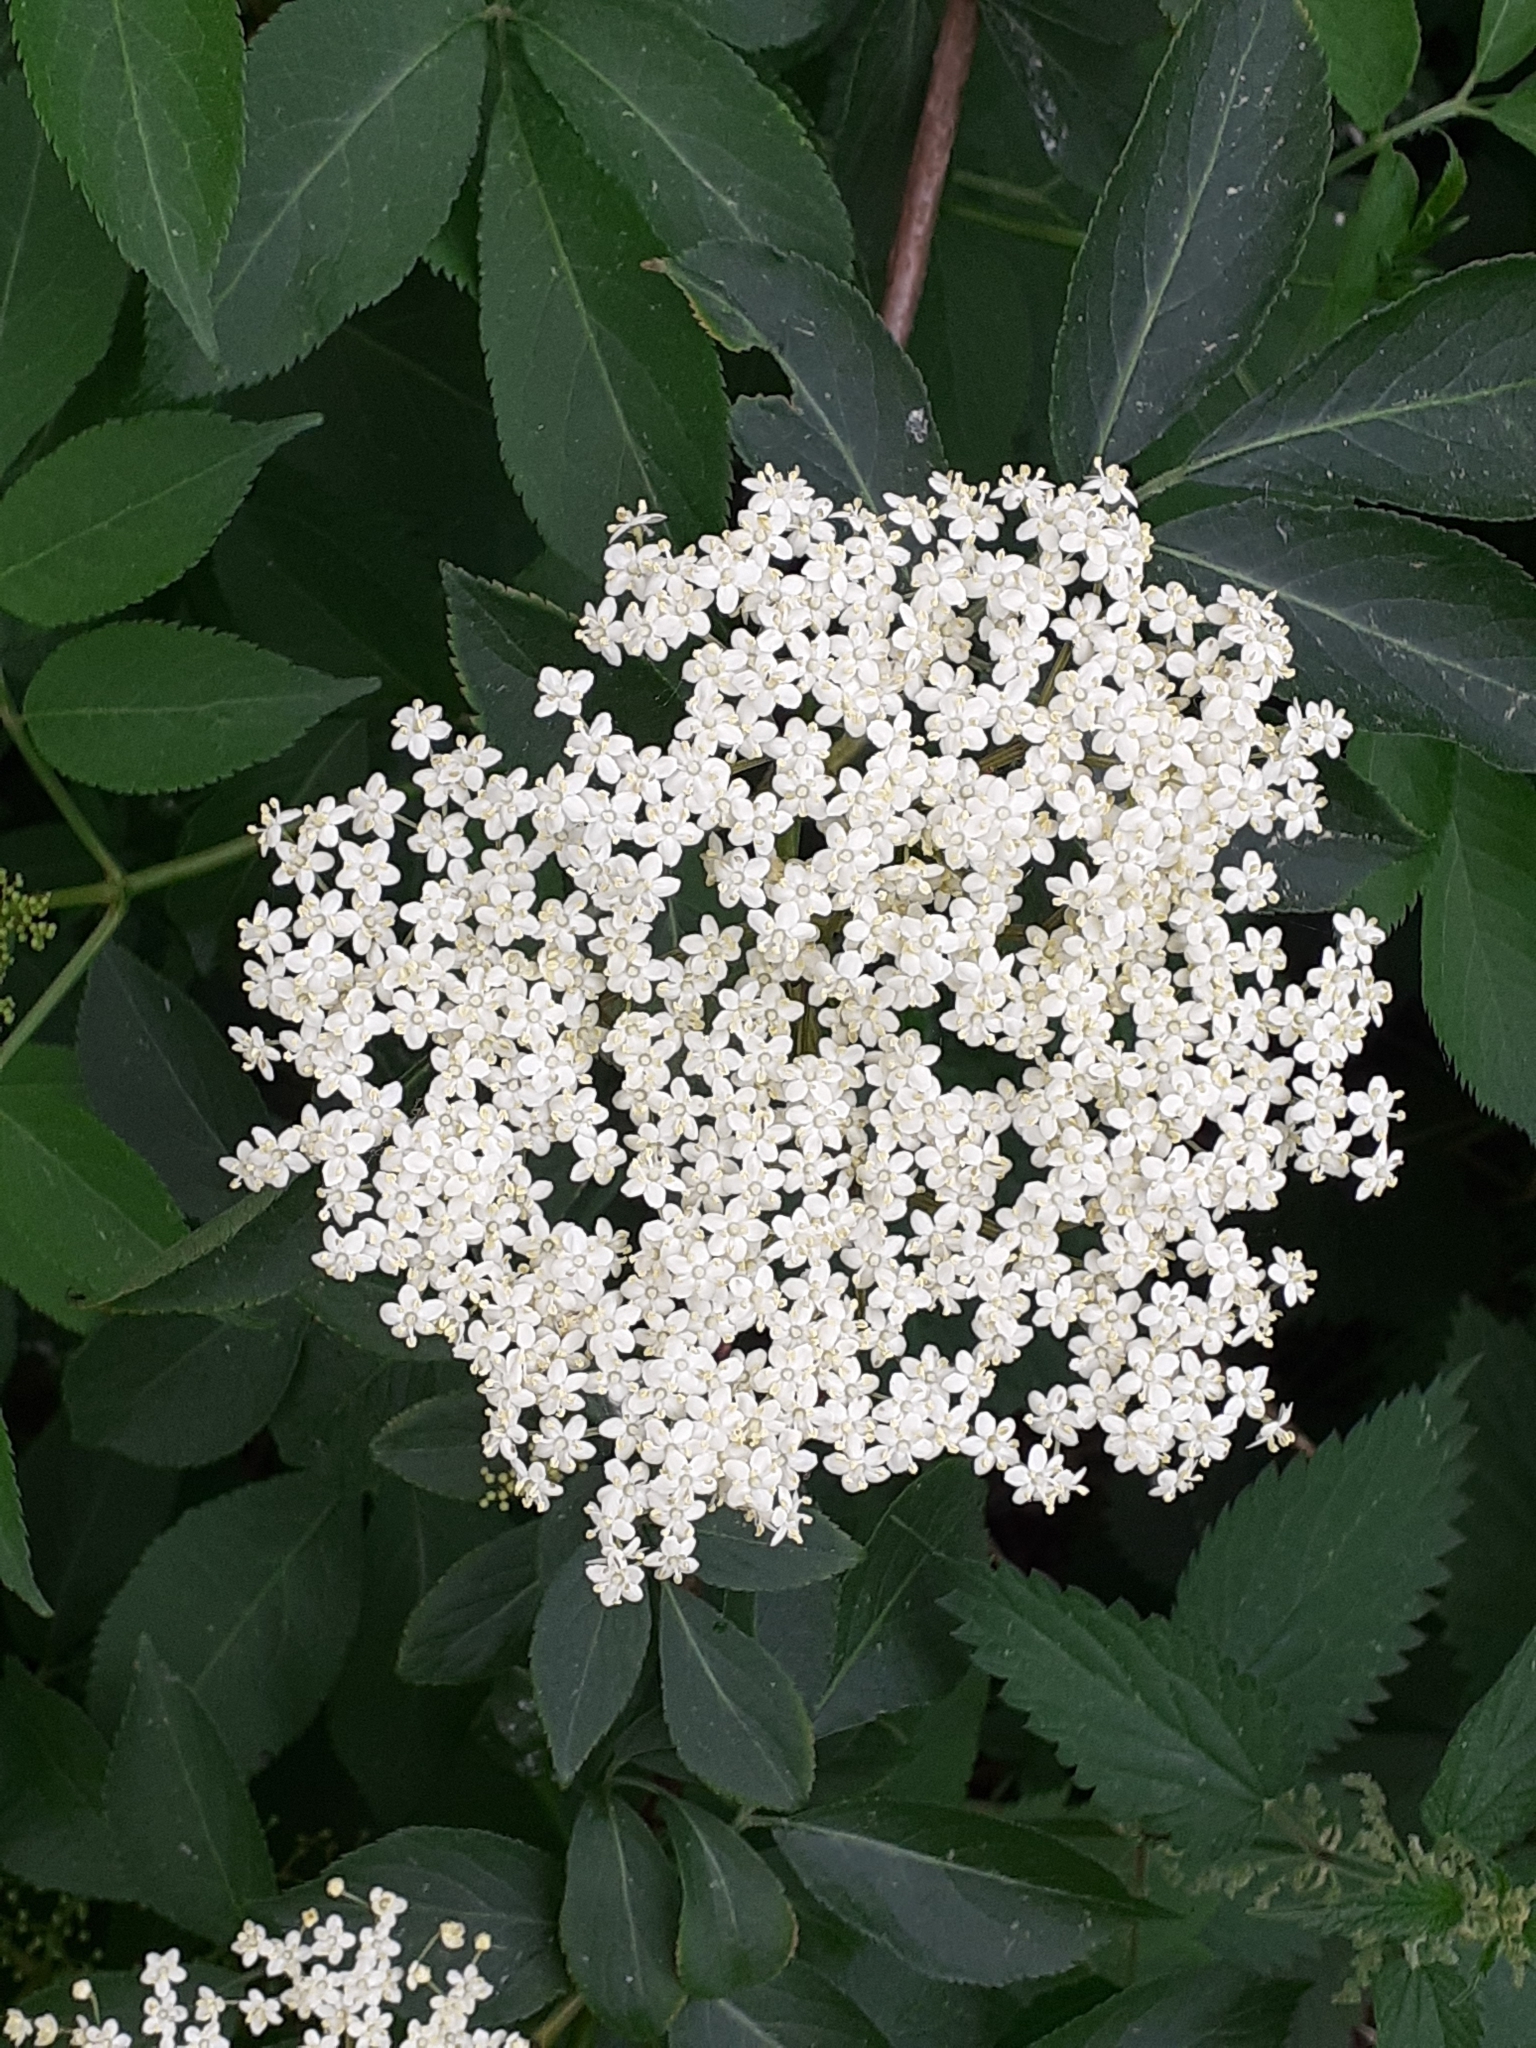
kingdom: Plantae
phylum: Tracheophyta
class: Magnoliopsida
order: Dipsacales
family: Viburnaceae
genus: Sambucus
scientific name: Sambucus nigra
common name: Elder
